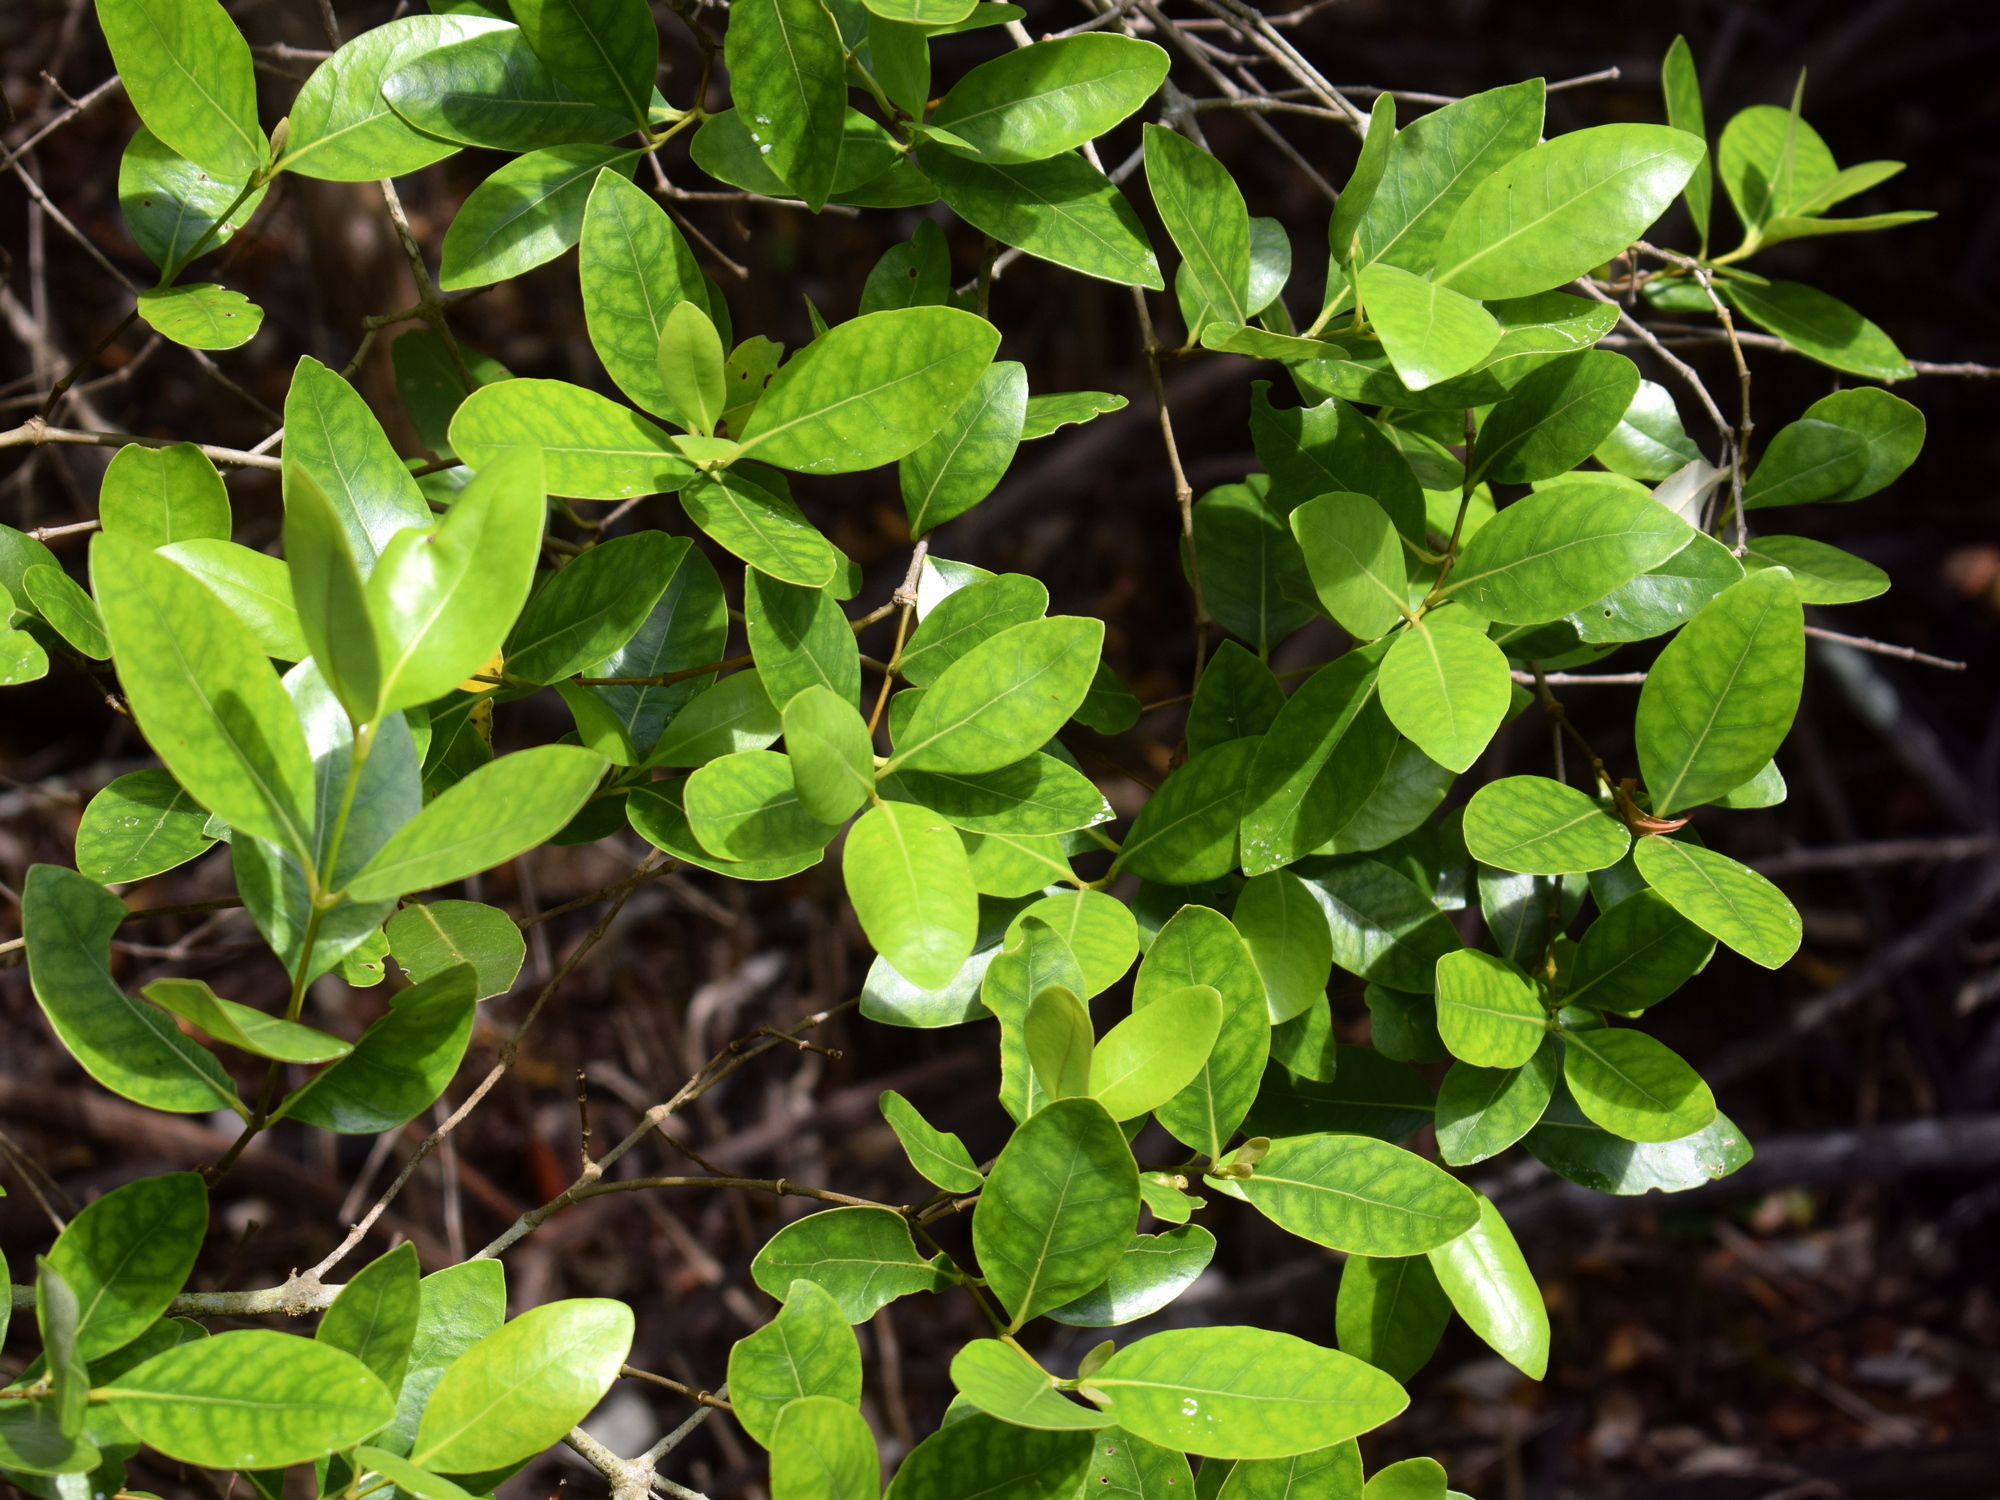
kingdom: Plantae
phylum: Tracheophyta
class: Magnoliopsida
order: Lamiales
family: Acanthaceae
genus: Avicennia
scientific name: Avicennia marina
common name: Gray mangrove
